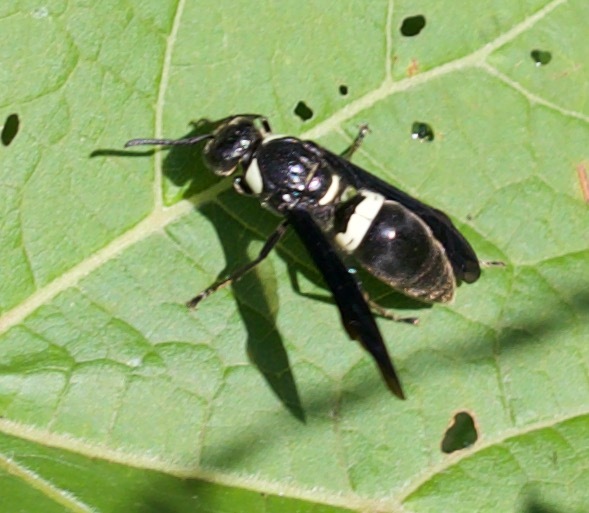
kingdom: Animalia
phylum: Arthropoda
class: Insecta
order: Hymenoptera
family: Eumenidae
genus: Monobia
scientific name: Monobia quadridens
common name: Four-toothed mason wasp
